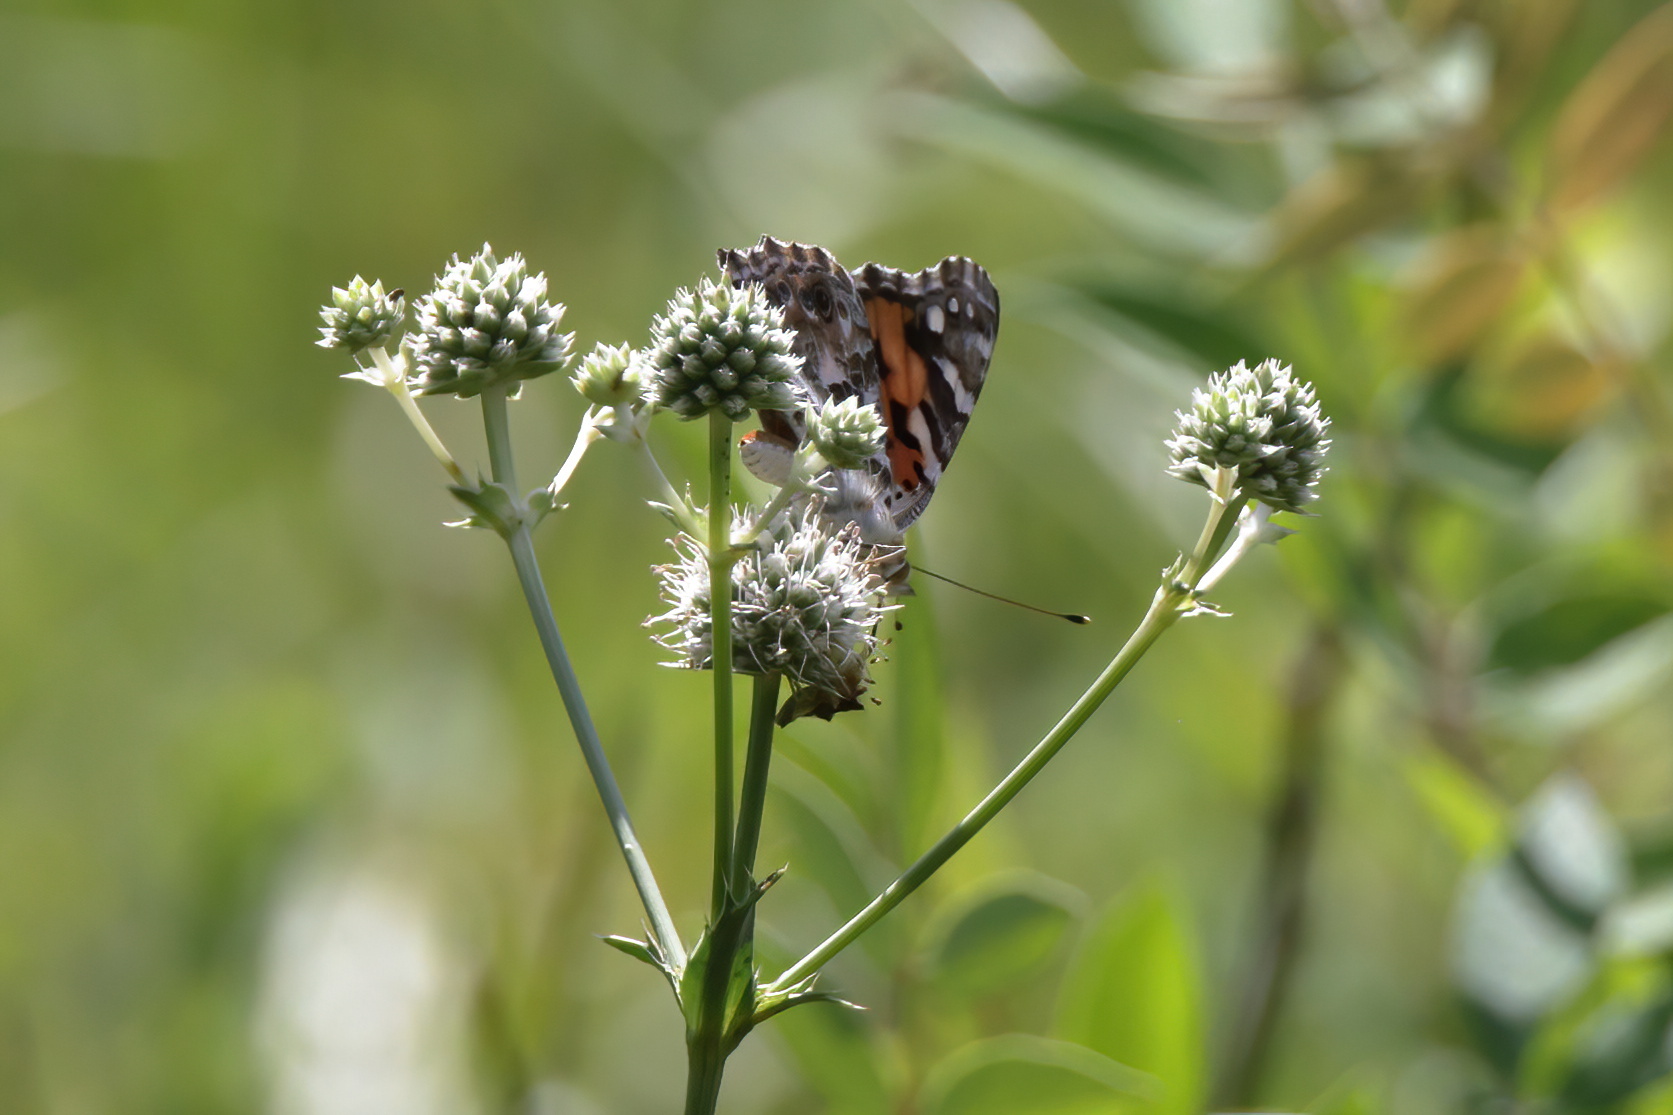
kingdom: Animalia
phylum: Arthropoda
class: Insecta
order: Lepidoptera
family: Nymphalidae
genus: Vanessa
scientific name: Vanessa cardui
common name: Painted lady
